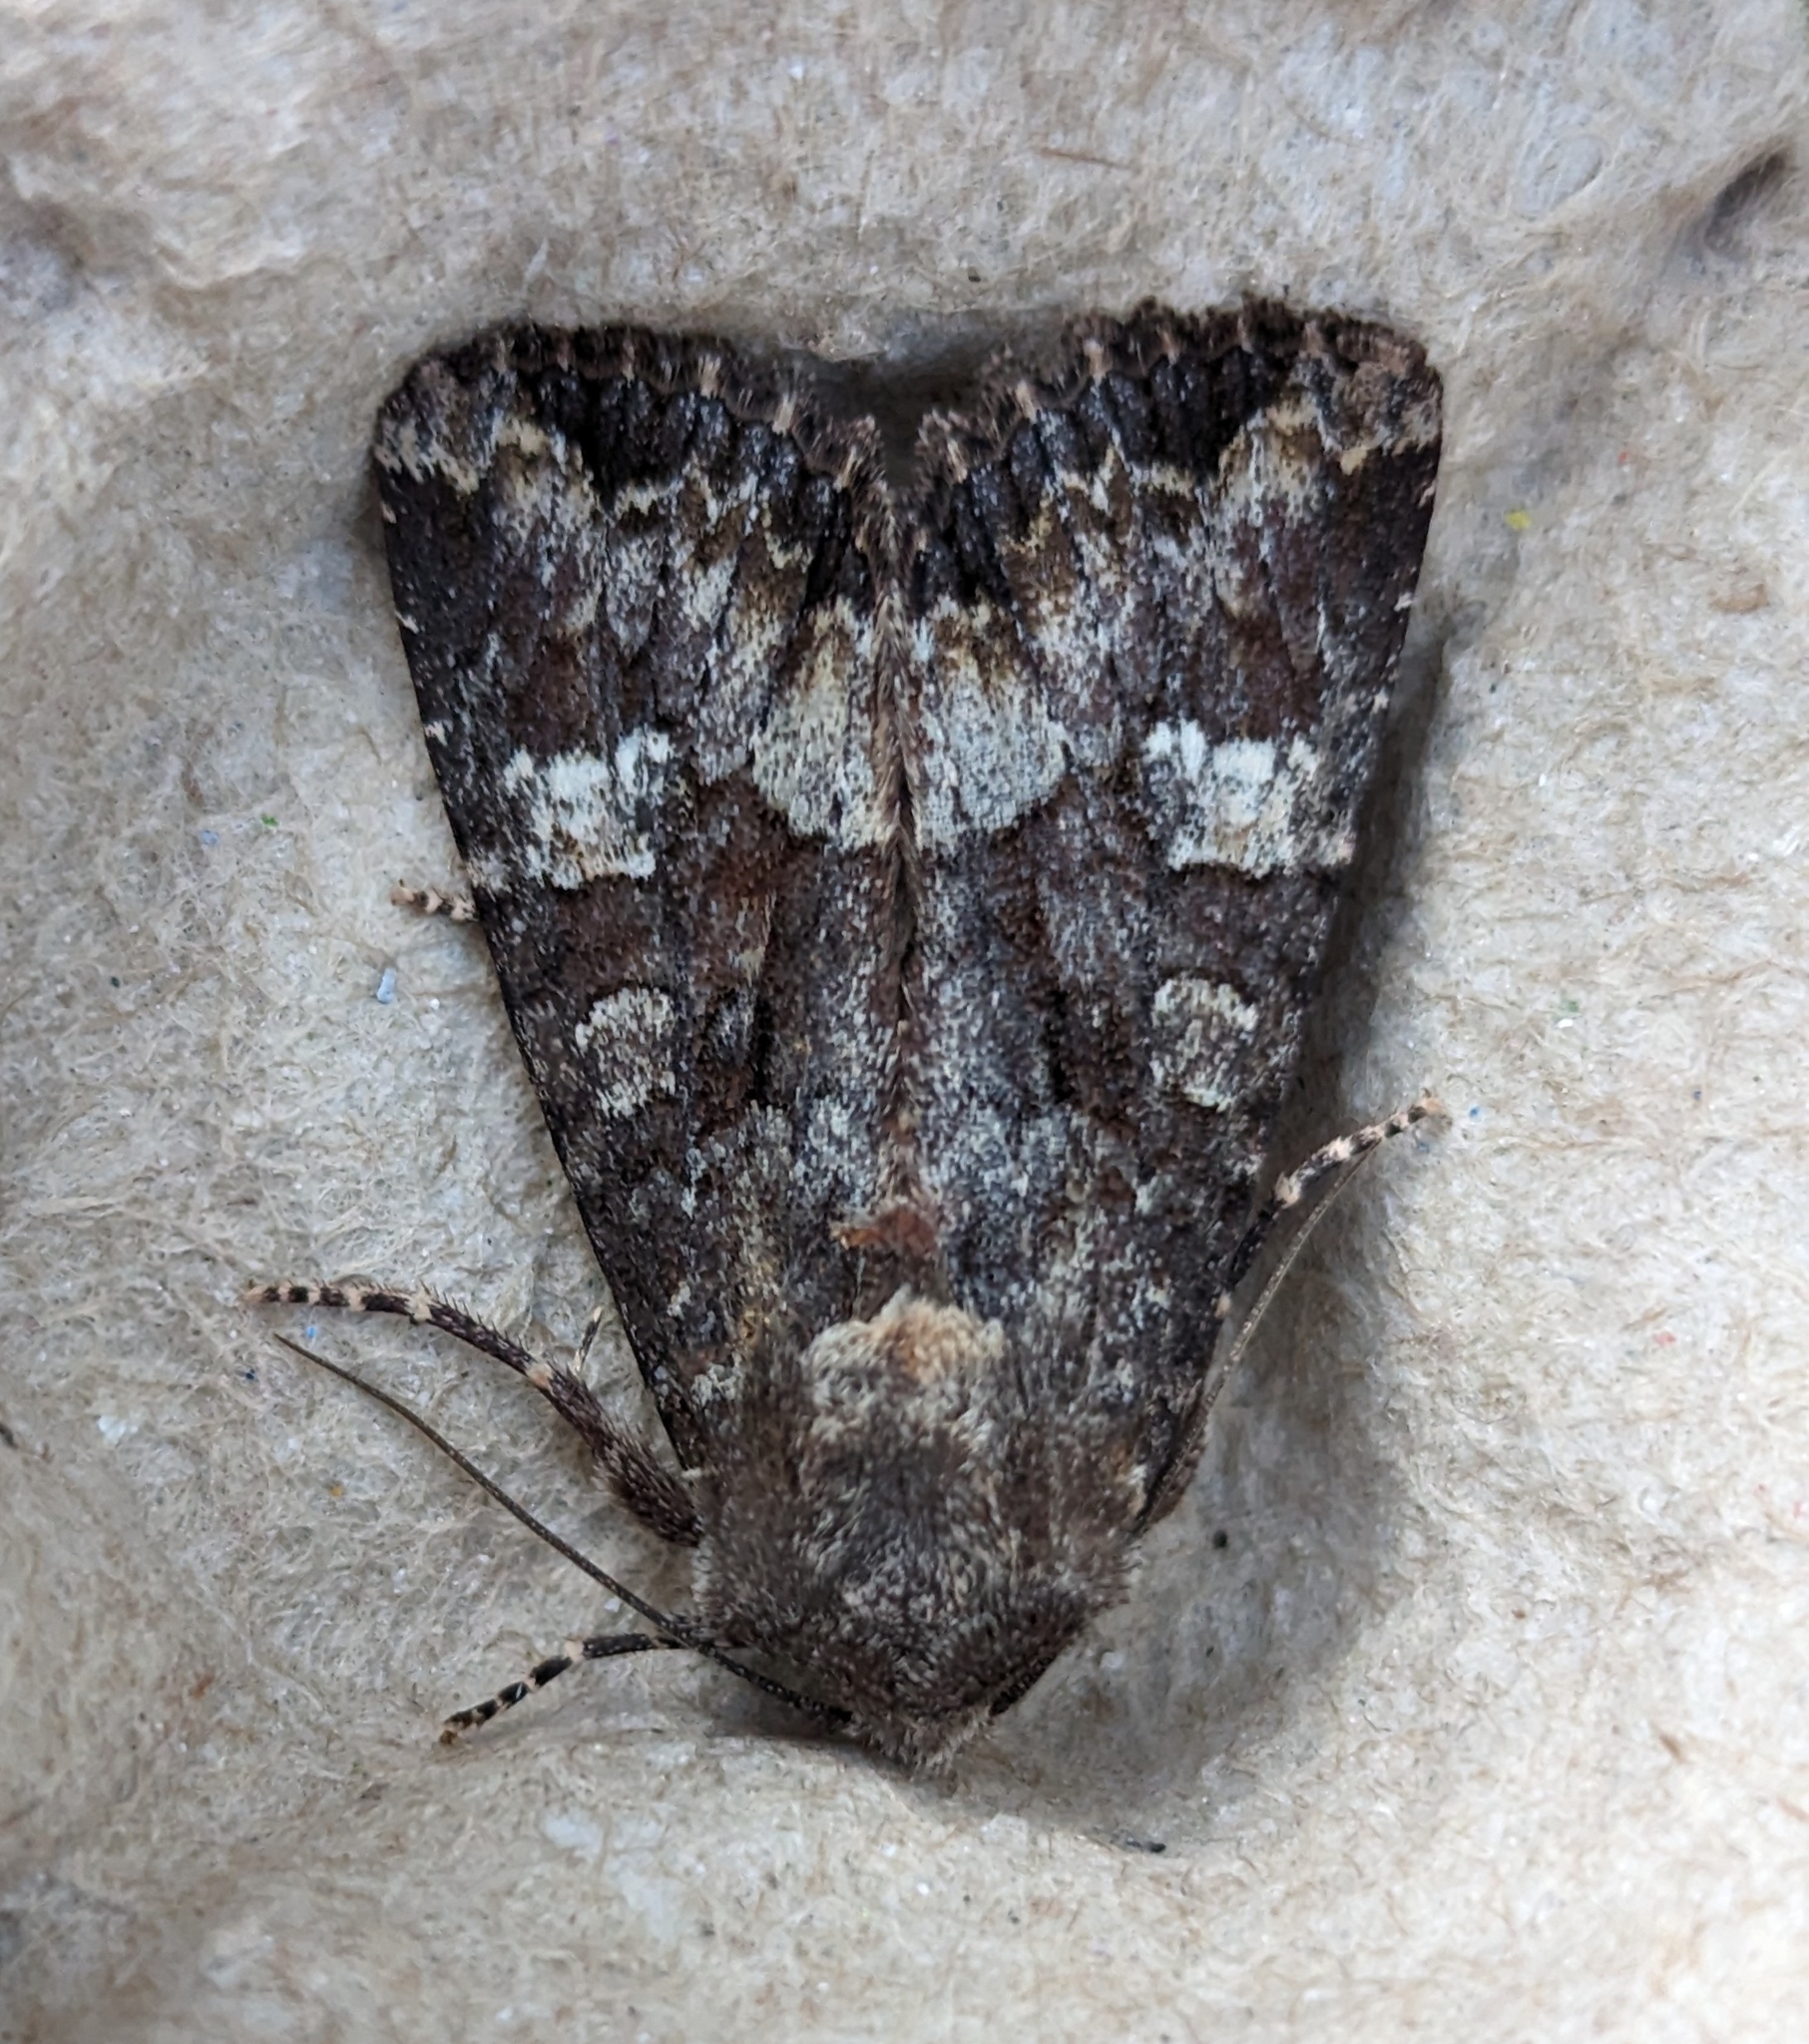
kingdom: Animalia
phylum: Arthropoda
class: Insecta
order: Lepidoptera
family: Noctuidae
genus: Spiramater
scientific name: Spiramater lutra
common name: Otter spiramater moth
